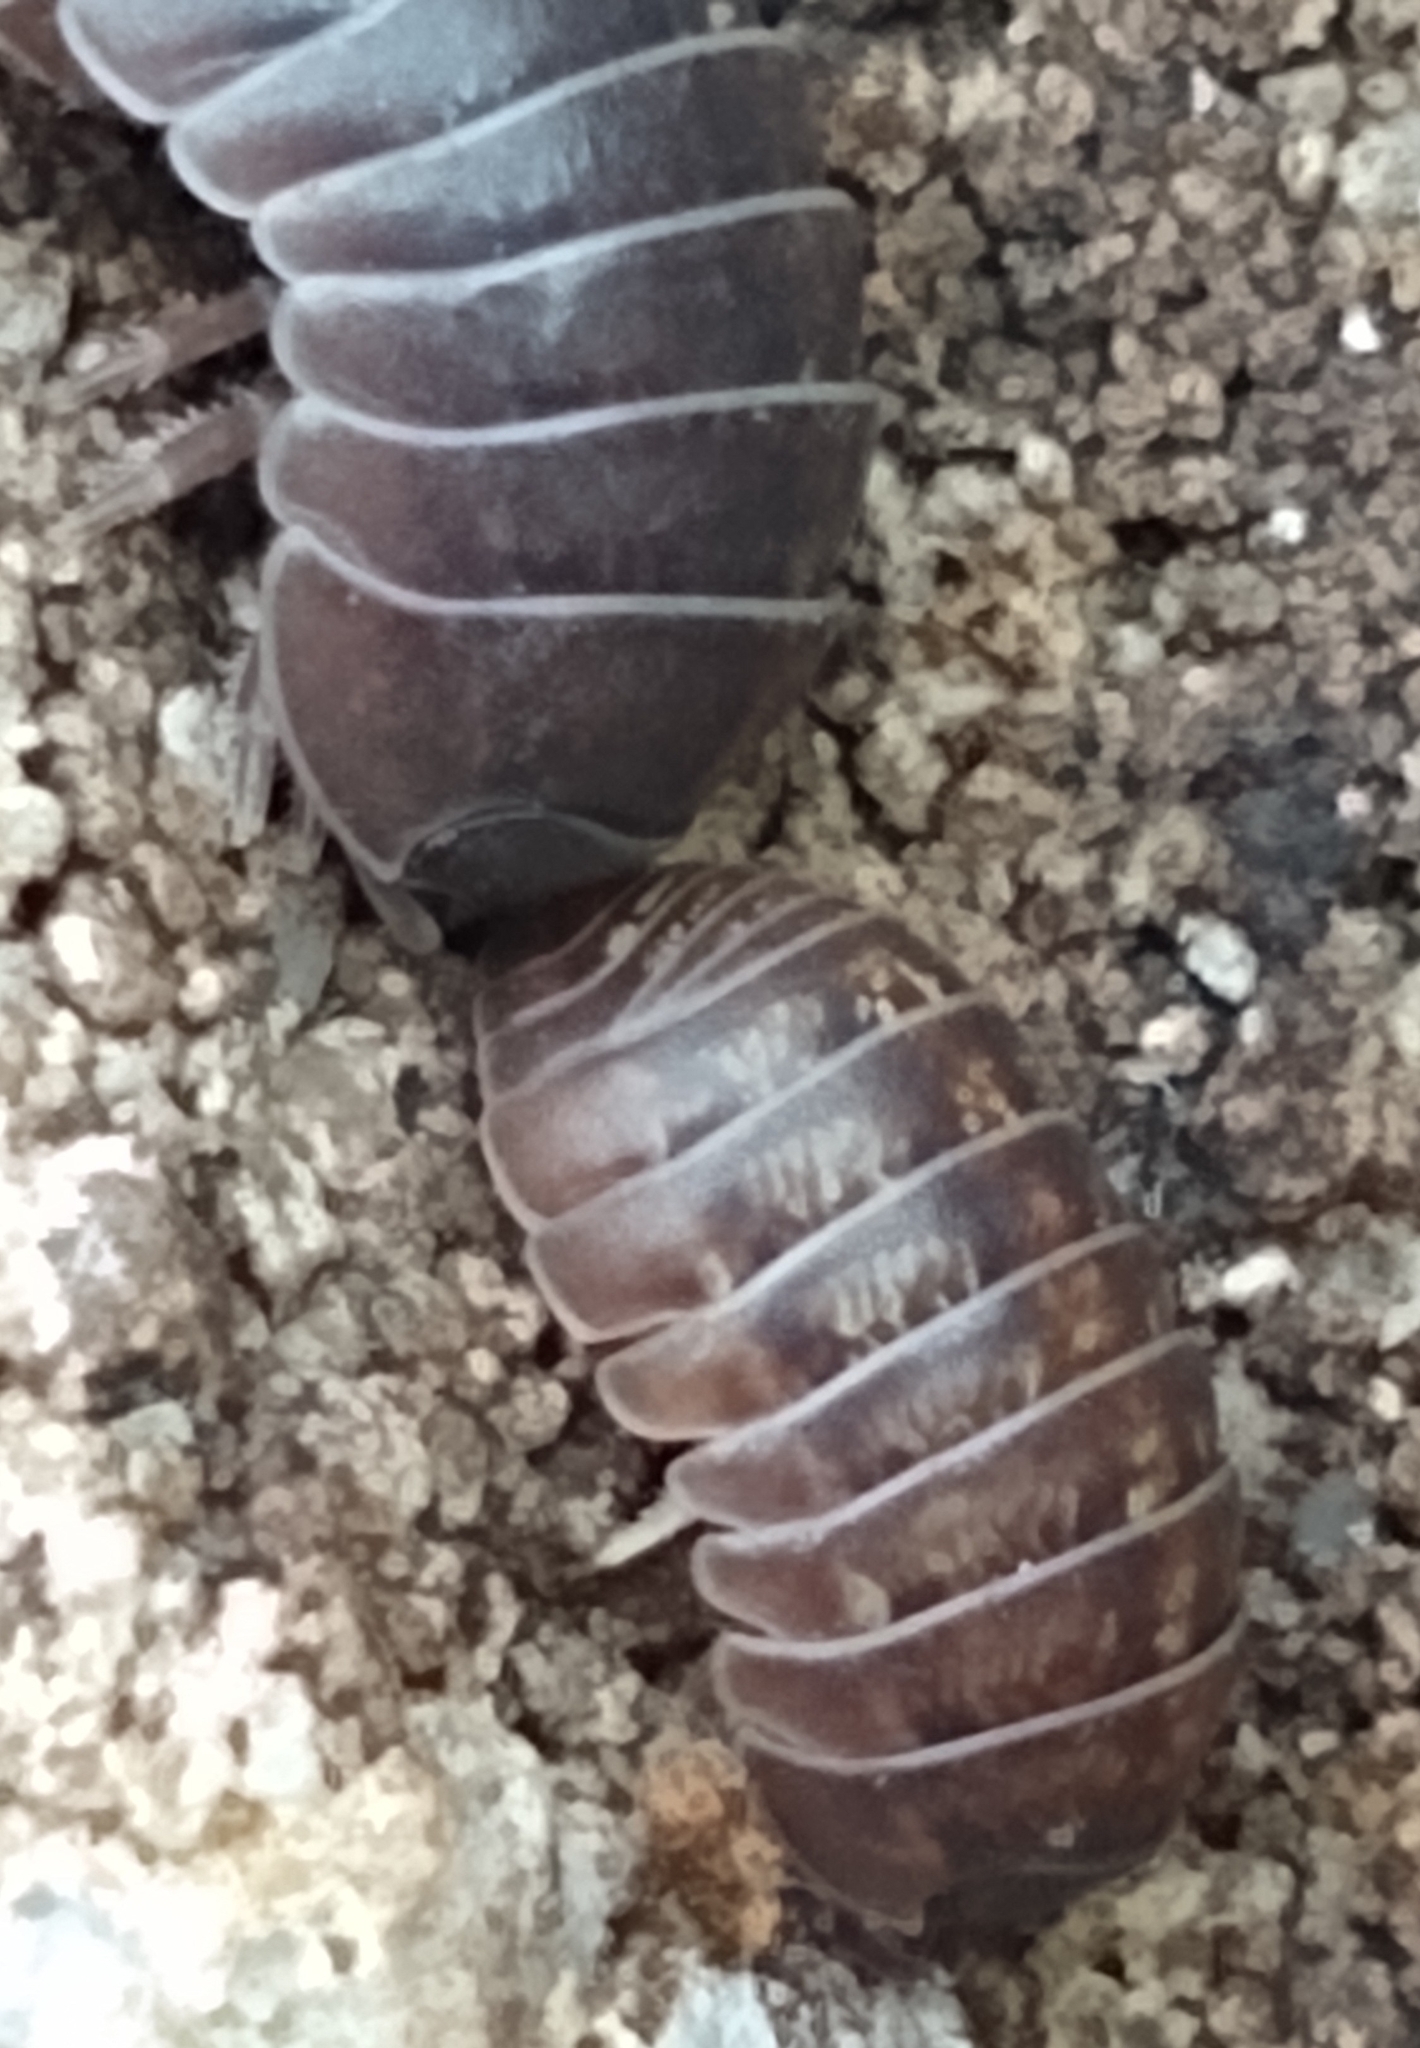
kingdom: Animalia
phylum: Arthropoda
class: Malacostraca
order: Isopoda
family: Armadillidiidae
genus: Armadillidium
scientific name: Armadillidium vulgare
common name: Common pill woodlouse
